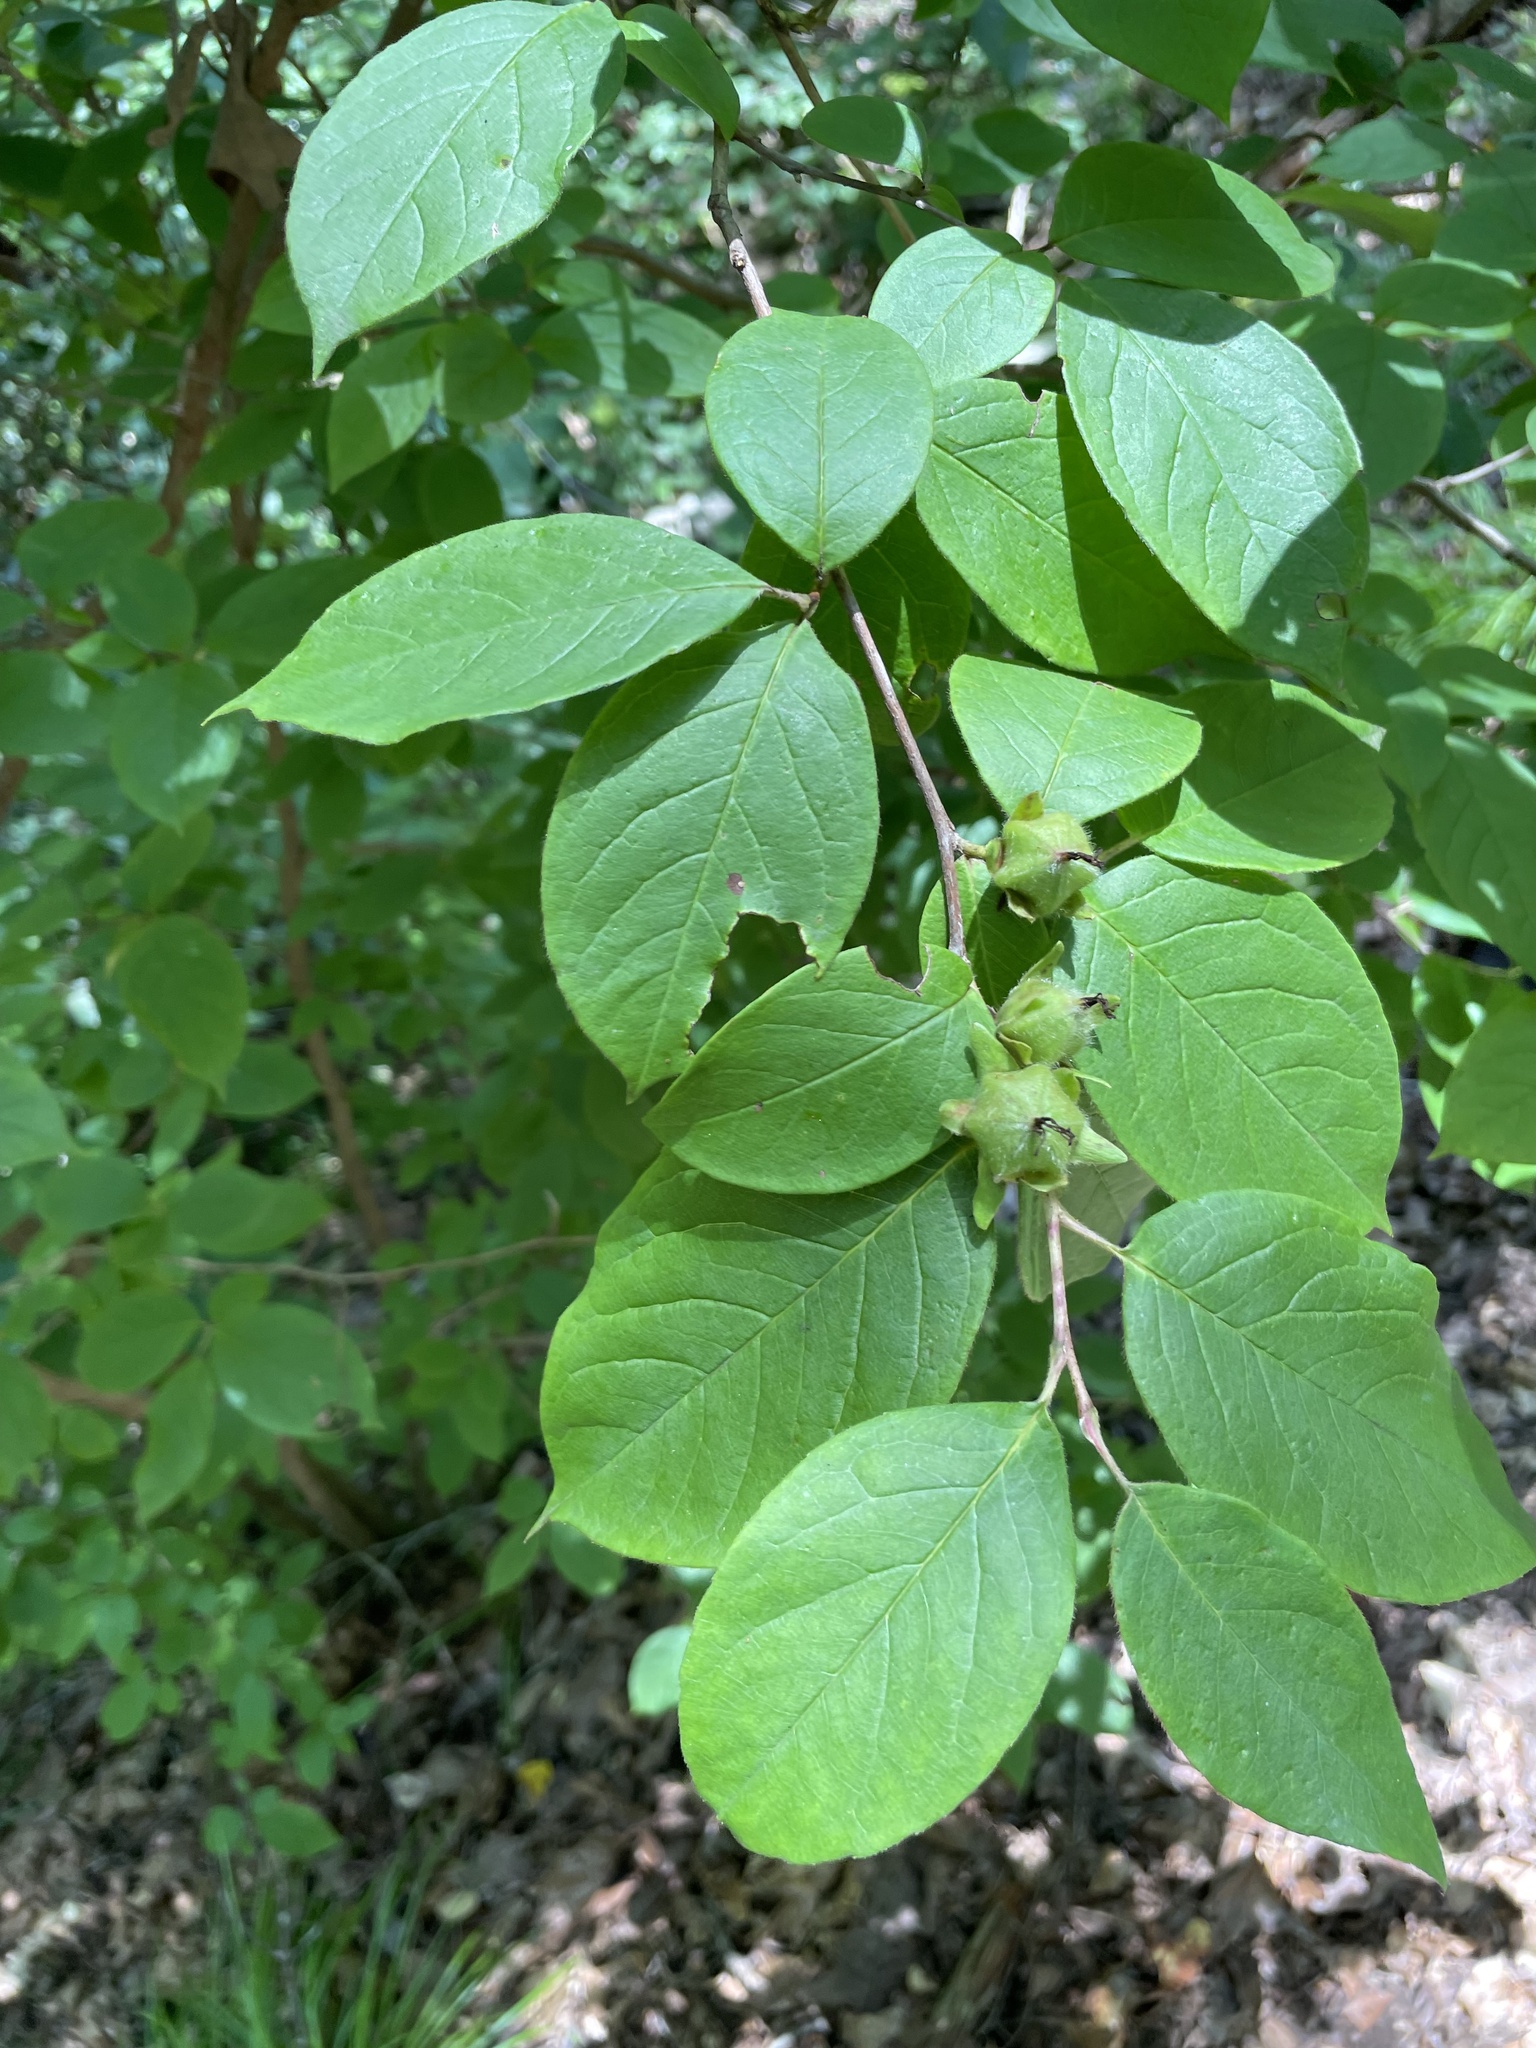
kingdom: Plantae
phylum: Tracheophyta
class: Magnoliopsida
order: Ericales
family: Theaceae
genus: Stewartia
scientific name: Stewartia ovata
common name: Mountain camellia
